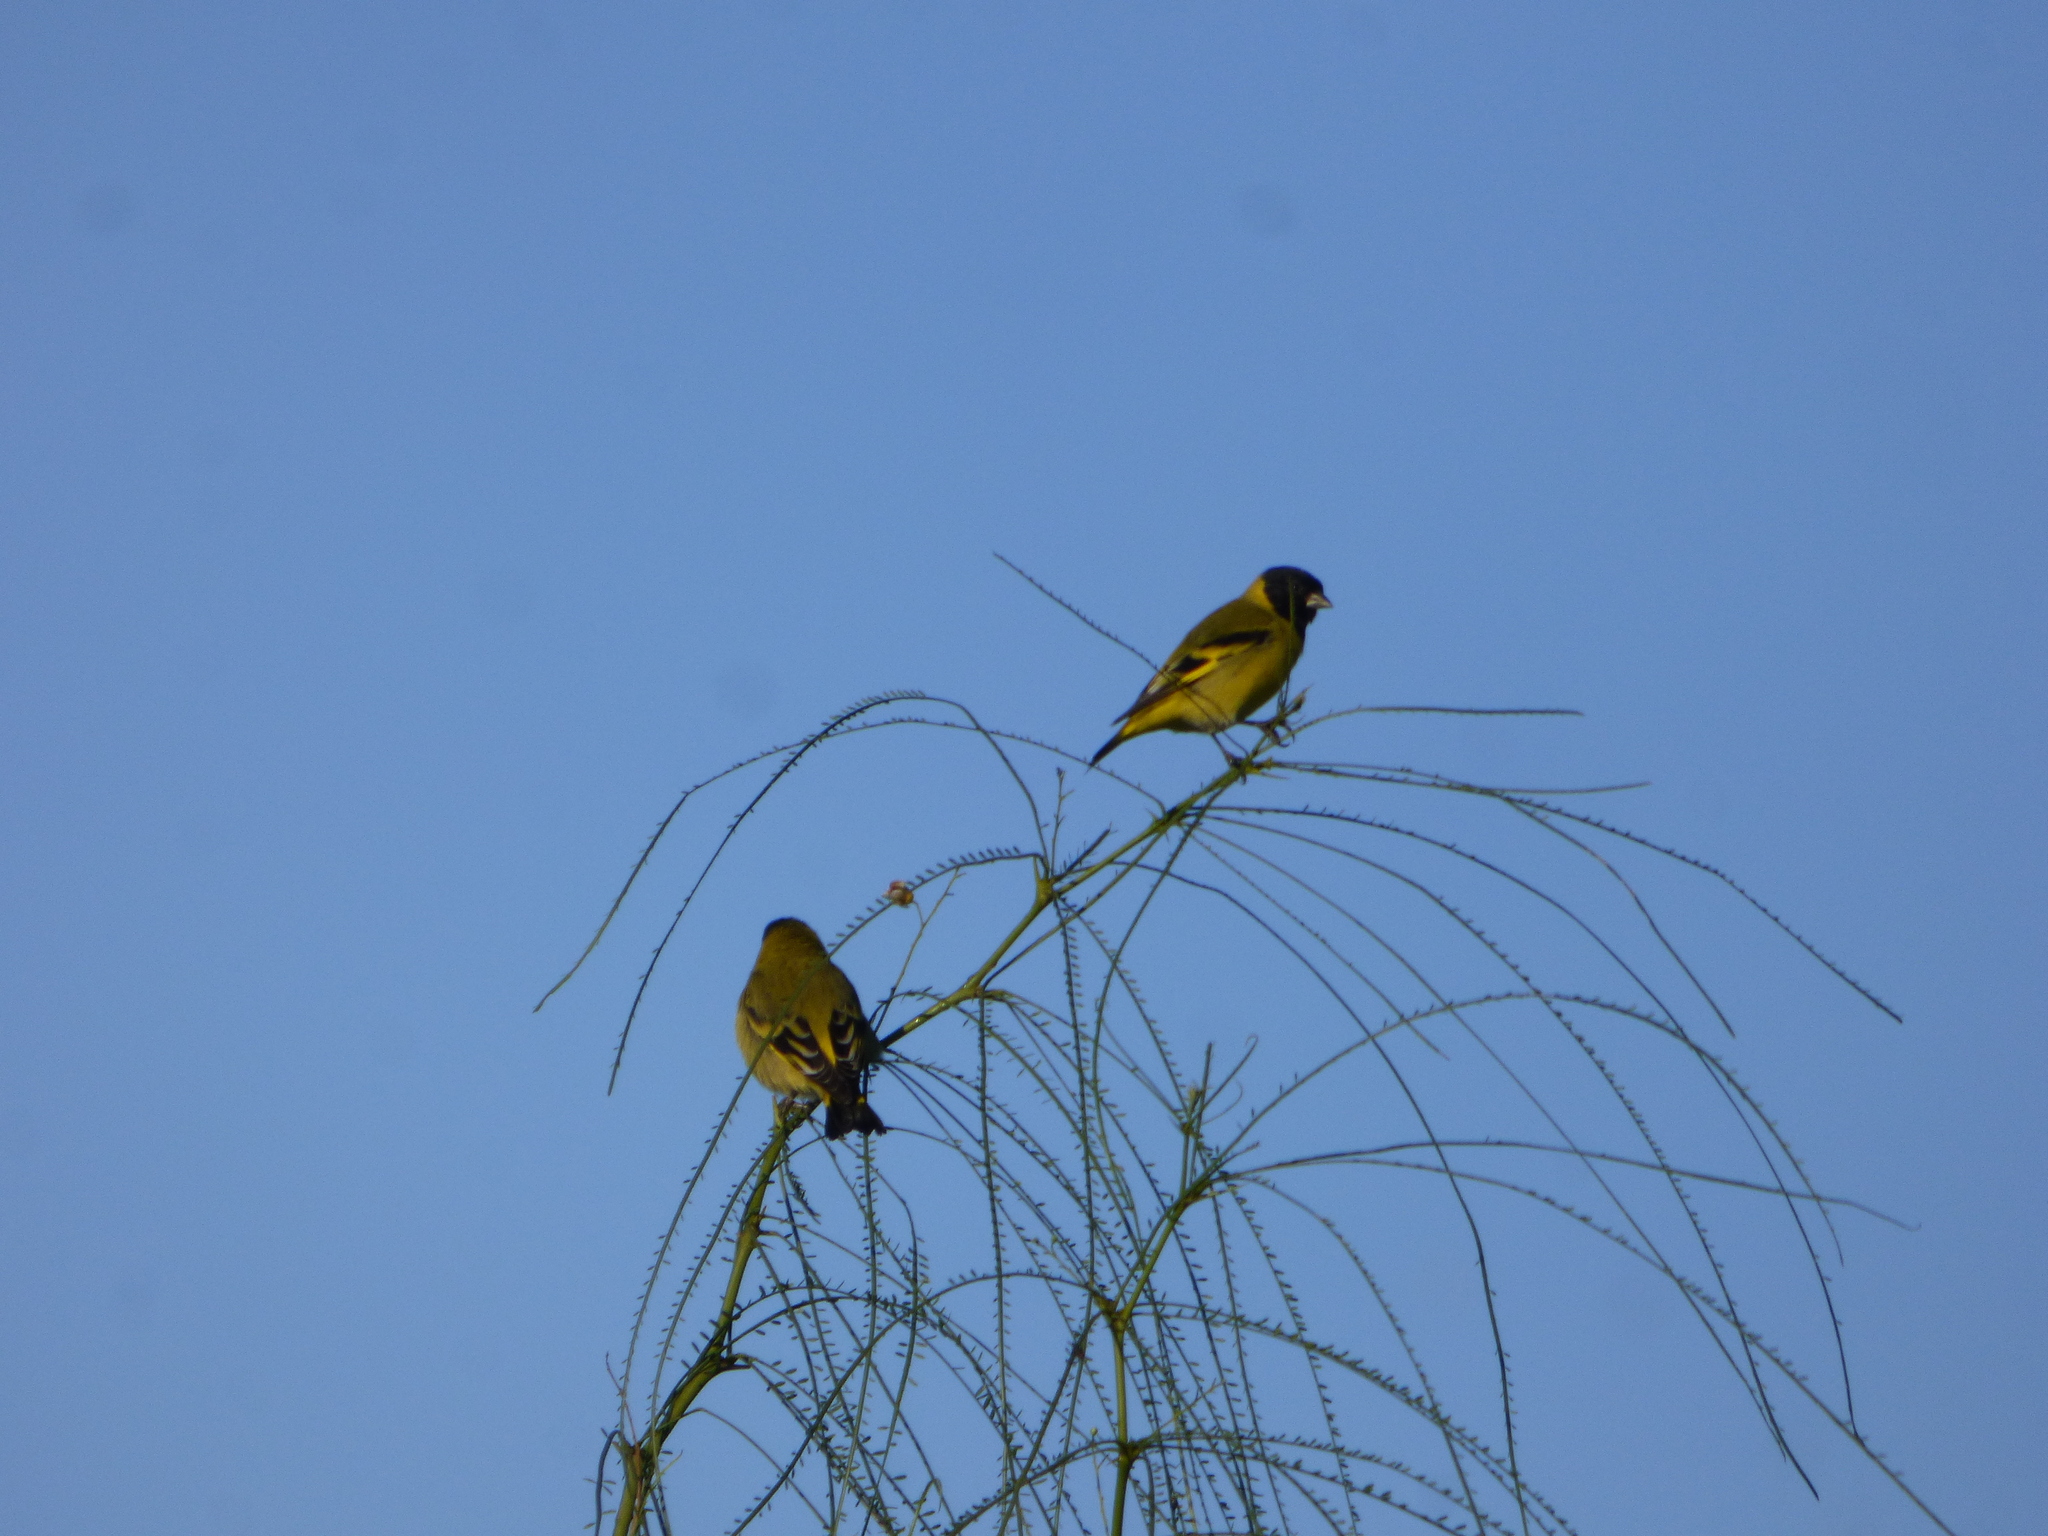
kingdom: Animalia
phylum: Chordata
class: Aves
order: Passeriformes
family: Fringillidae
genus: Spinus
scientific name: Spinus magellanicus
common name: Hooded siskin
